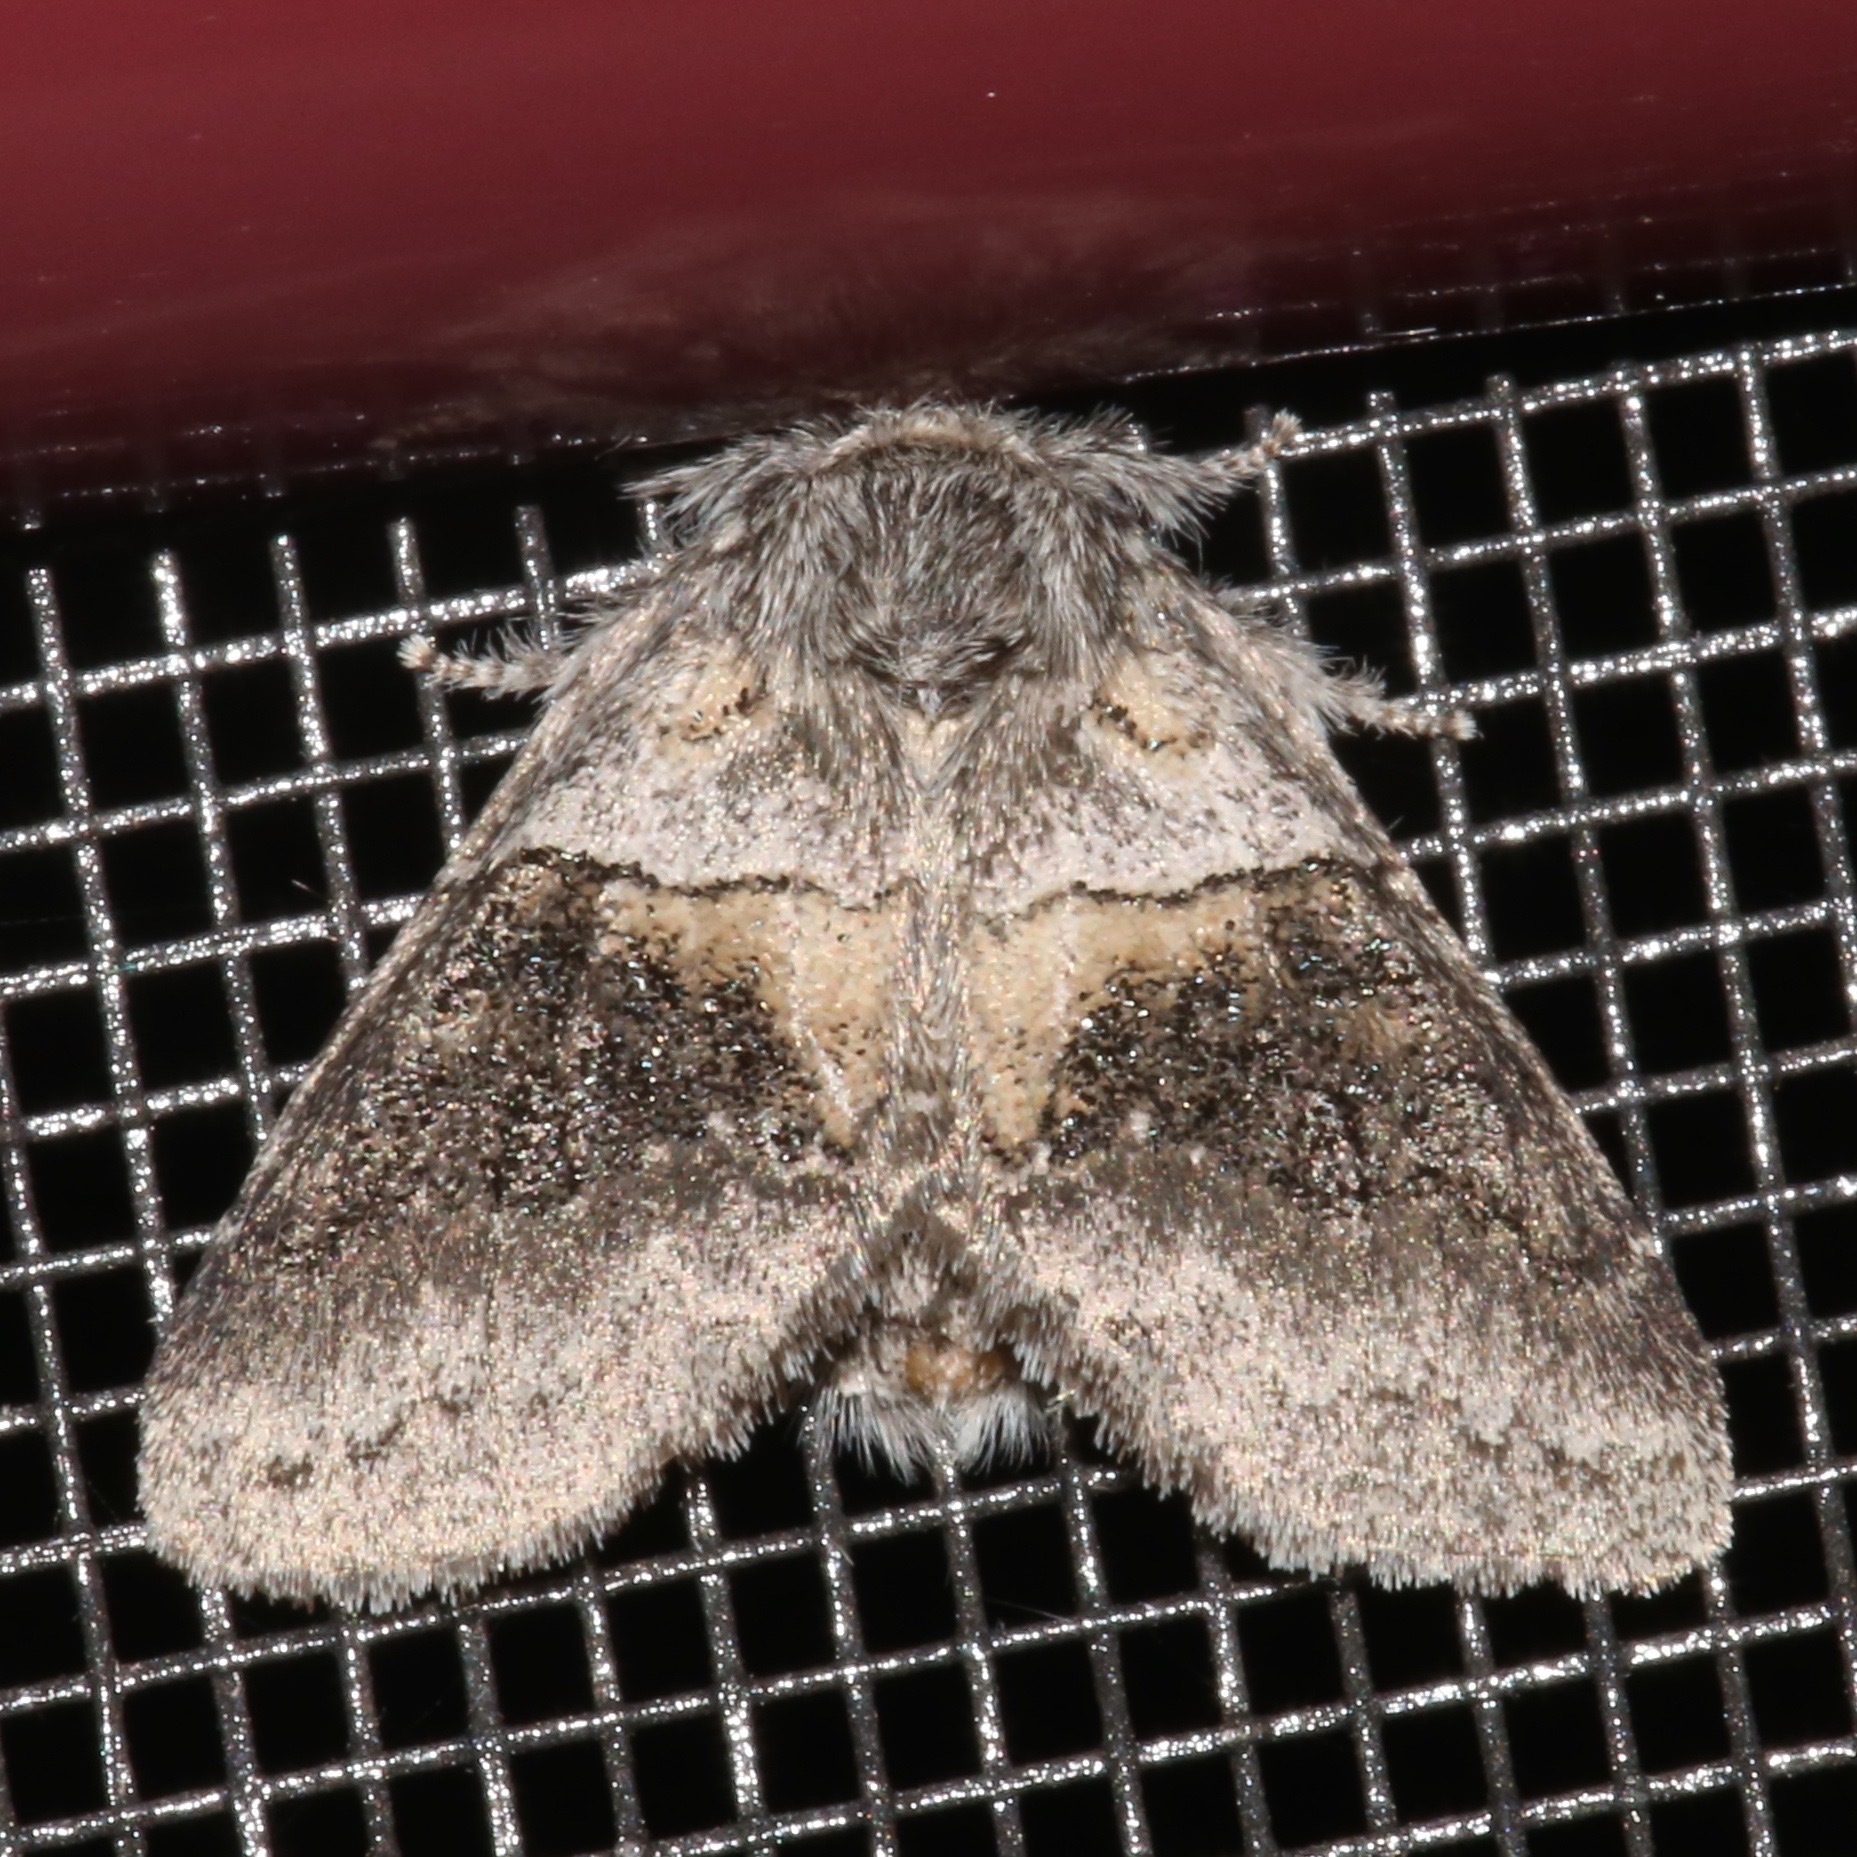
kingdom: Animalia
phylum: Arthropoda
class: Insecta
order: Lepidoptera
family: Notodontidae
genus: Gluphisia
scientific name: Gluphisia septentrionis
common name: Common gluphisia
